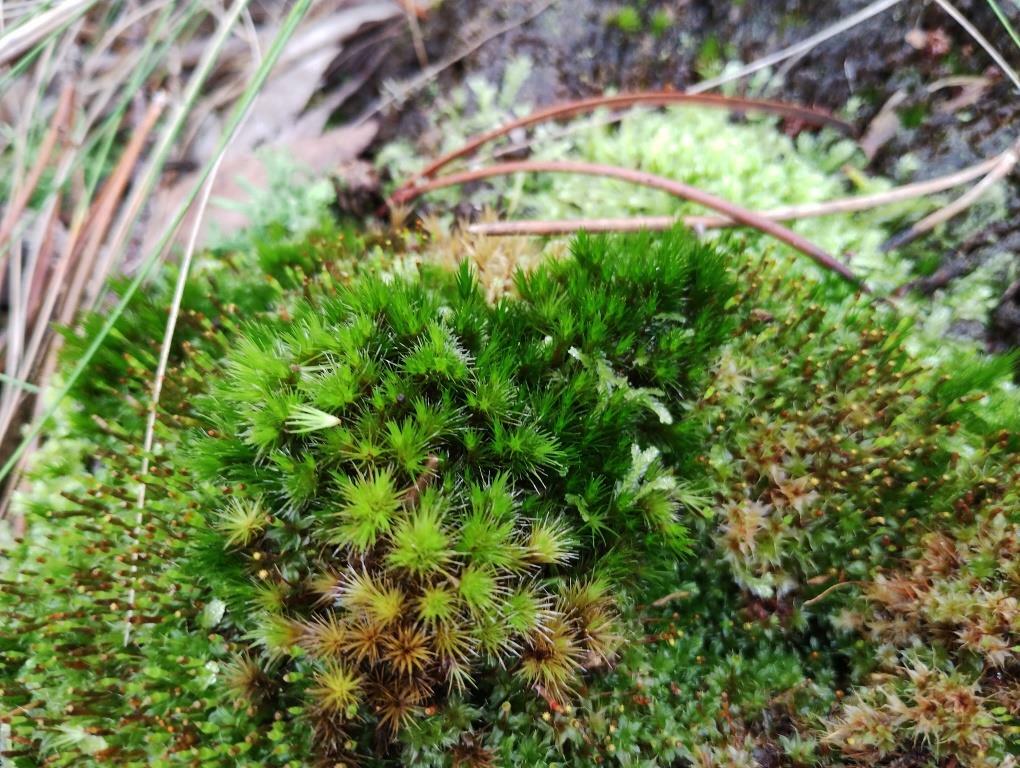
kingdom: Plantae
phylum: Bryophyta
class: Bryopsida
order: Dicranales
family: Leucobryaceae
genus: Campylopus
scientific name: Campylopus introflexus
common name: Heath star moss
